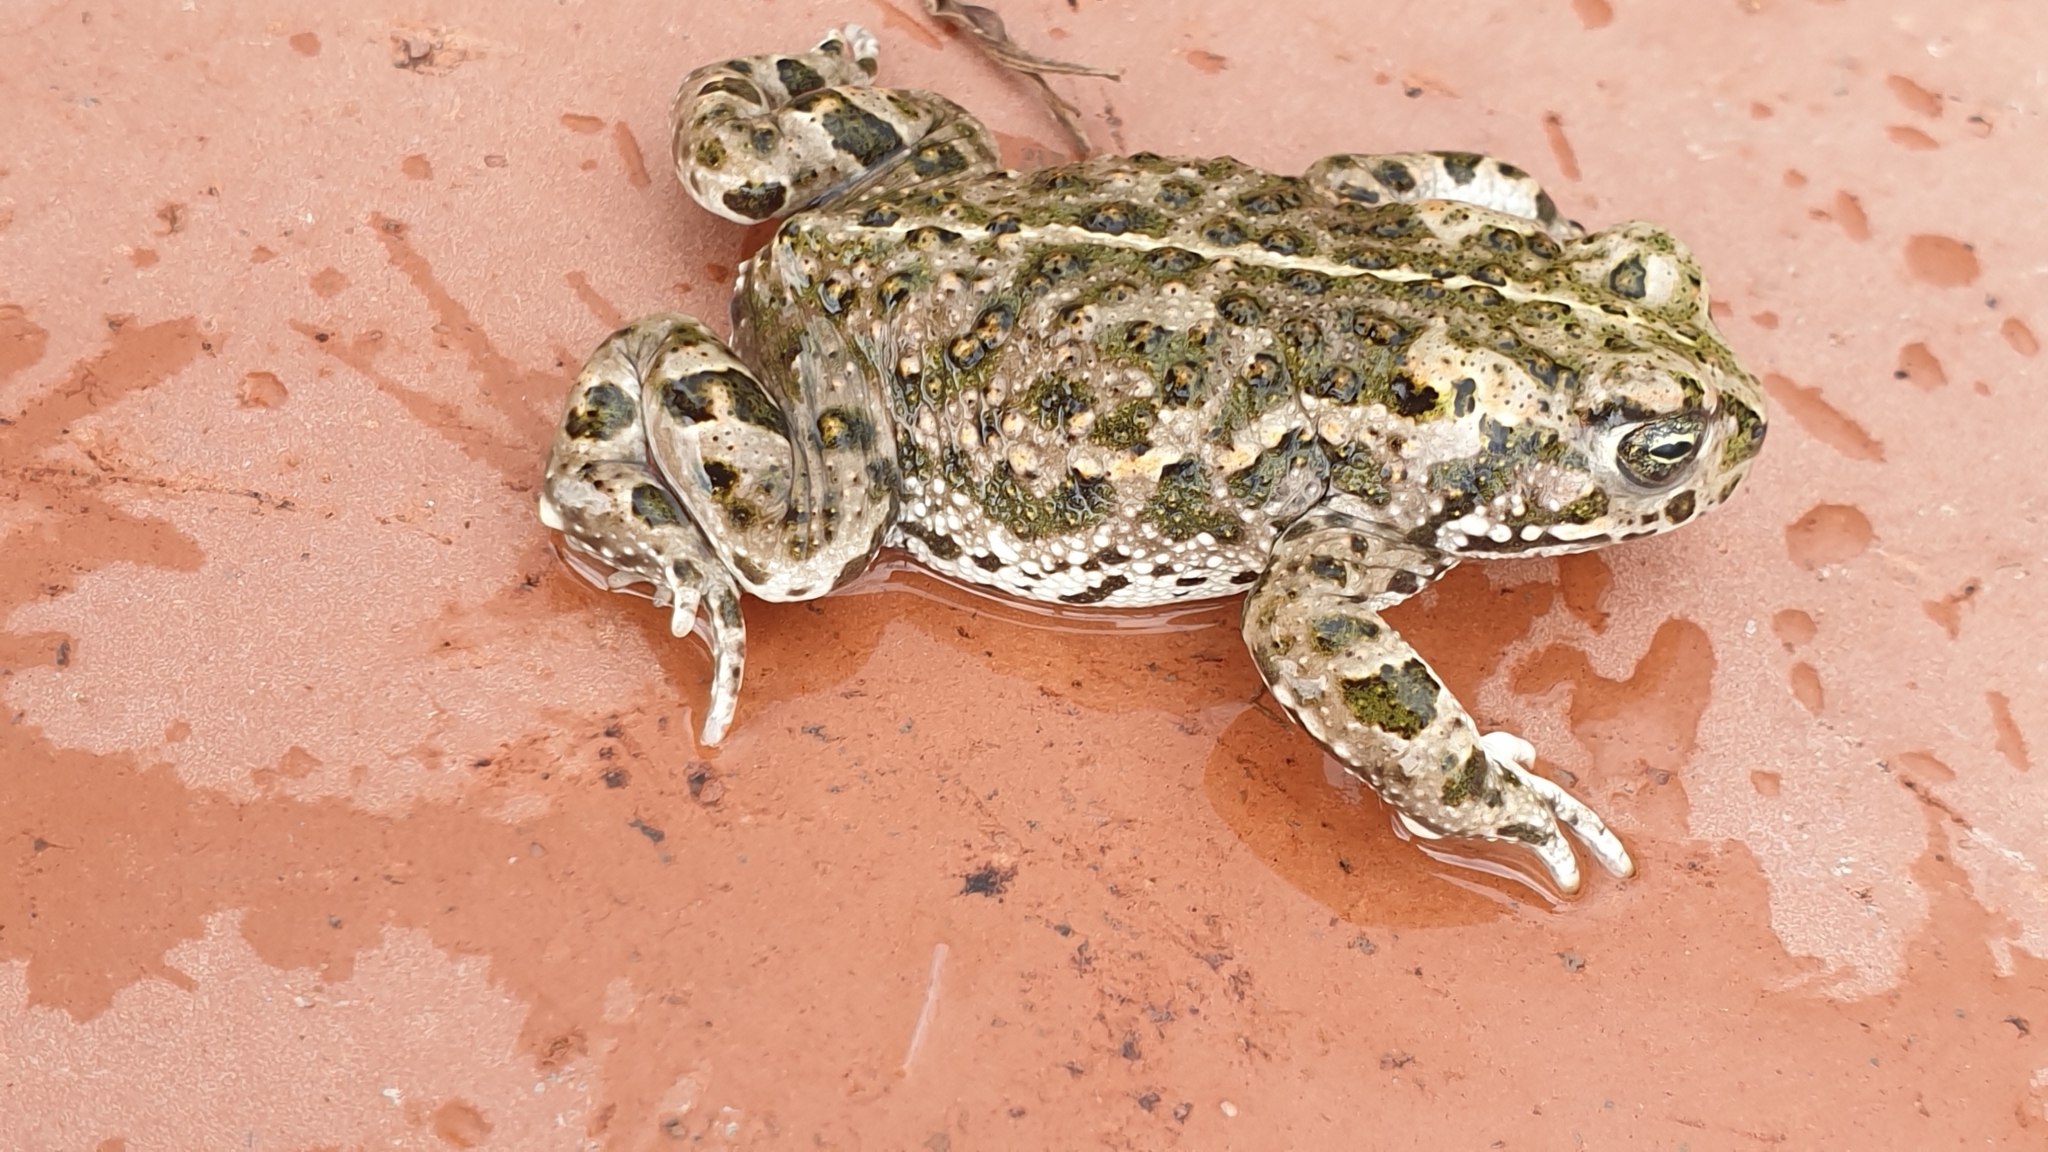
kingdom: Animalia
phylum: Chordata
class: Amphibia
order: Anura
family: Bufonidae
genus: Epidalea
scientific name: Epidalea calamita
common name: Natterjack toad
